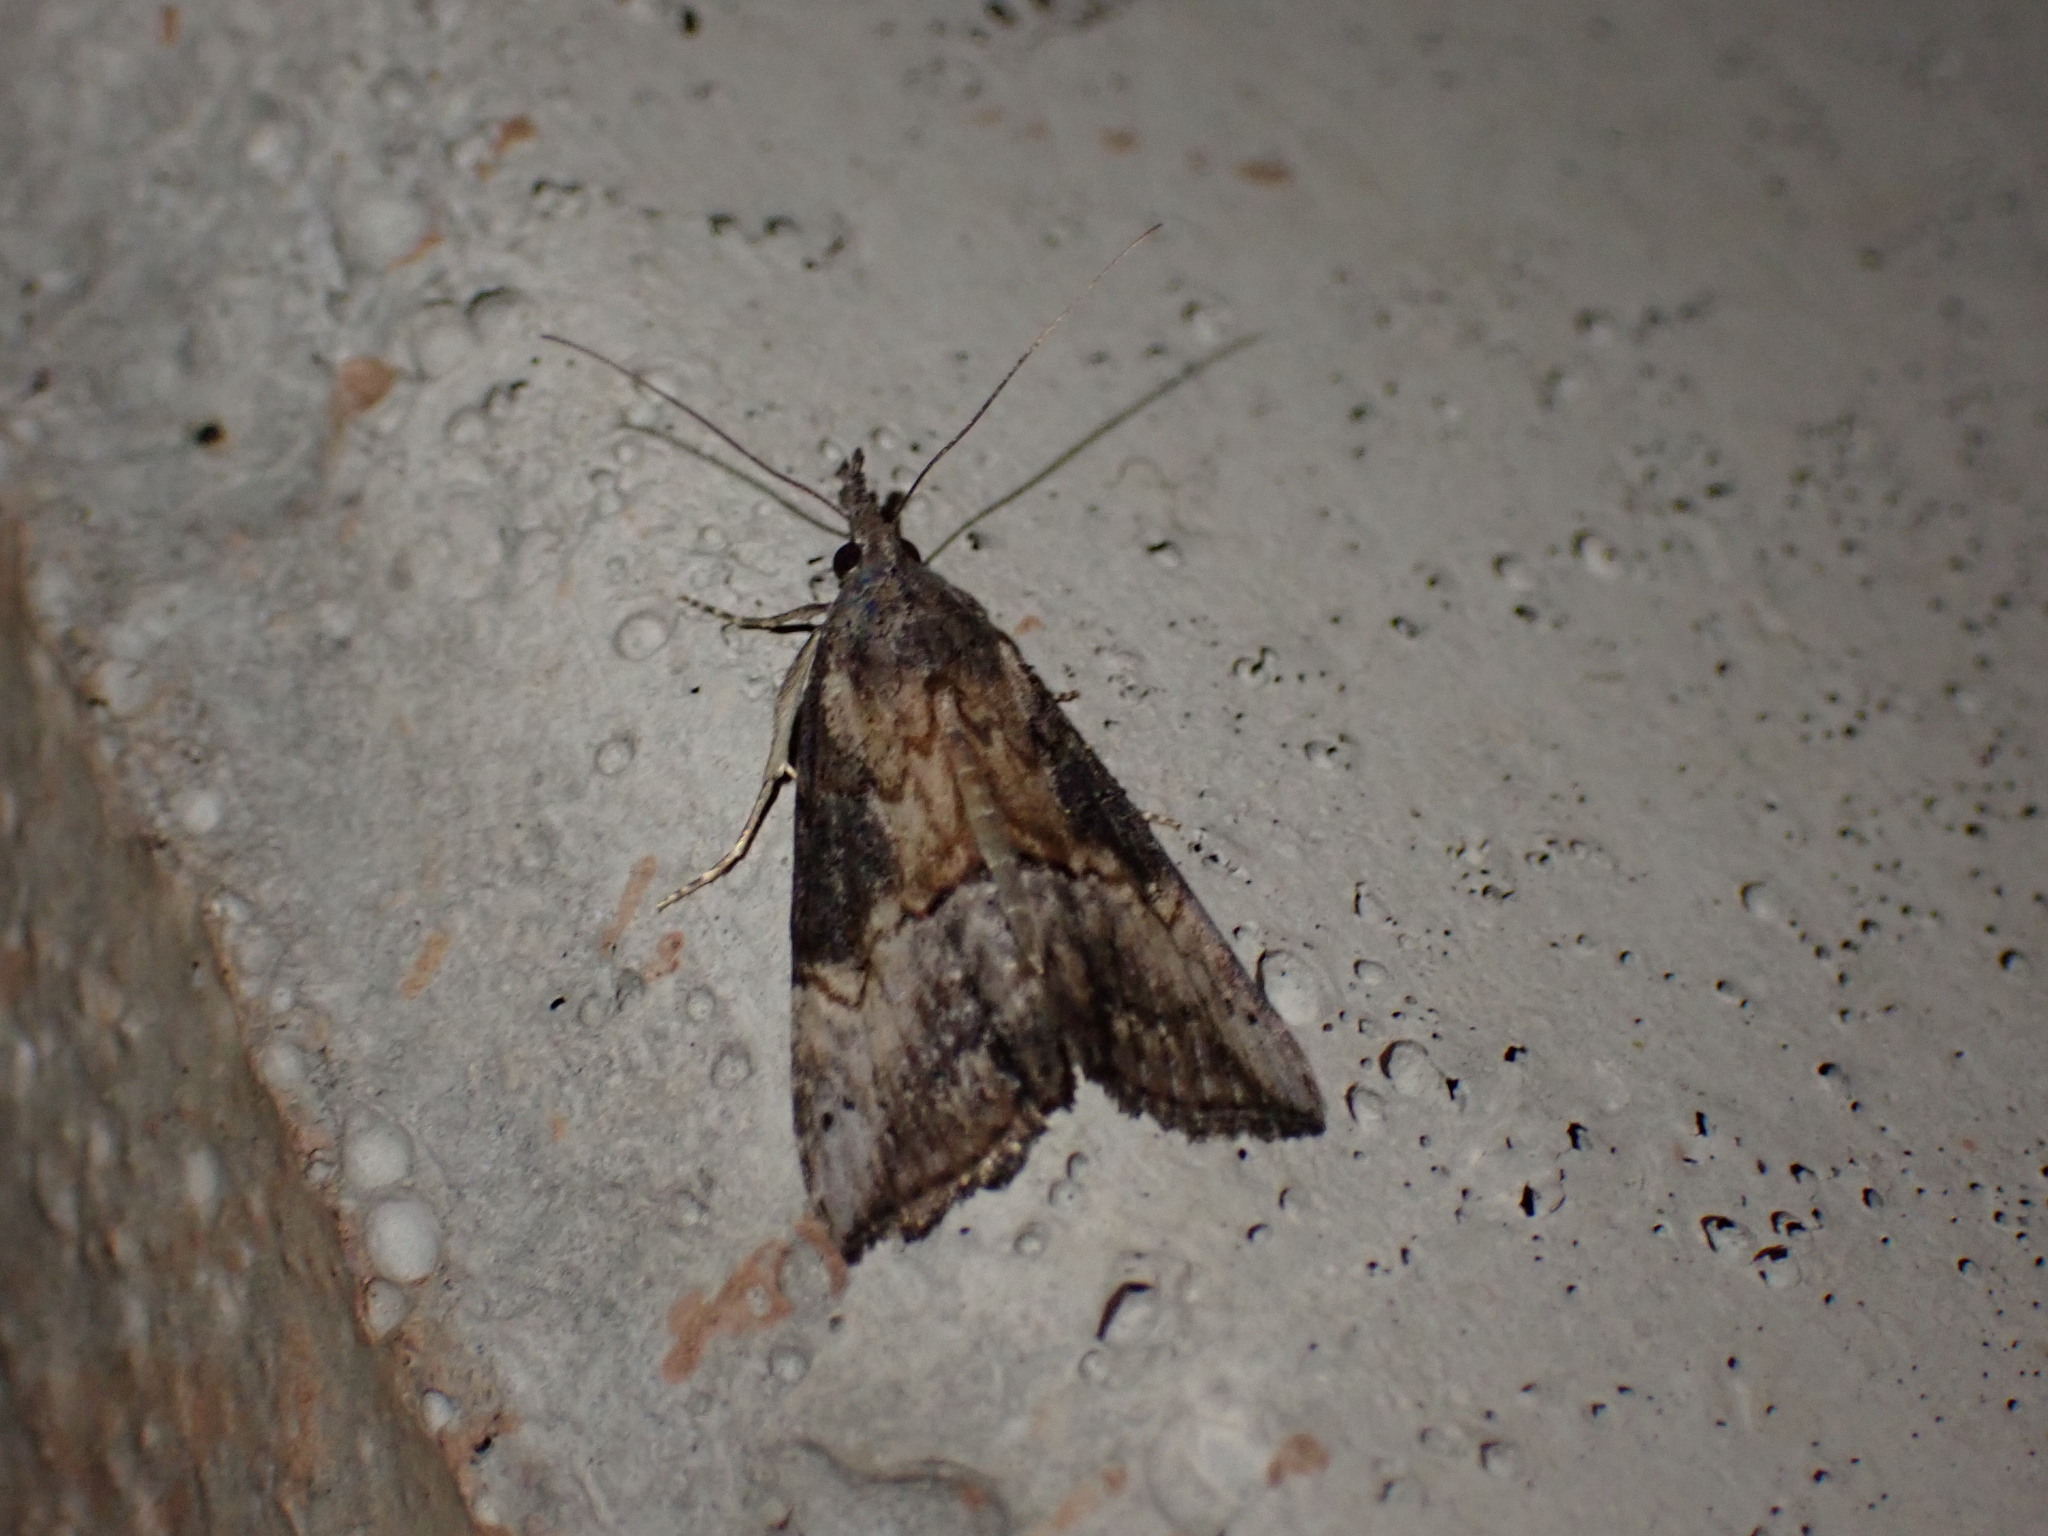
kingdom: Animalia
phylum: Arthropoda
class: Insecta
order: Lepidoptera
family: Erebidae
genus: Hypena
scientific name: Hypena scabra
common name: Green cloverworm
